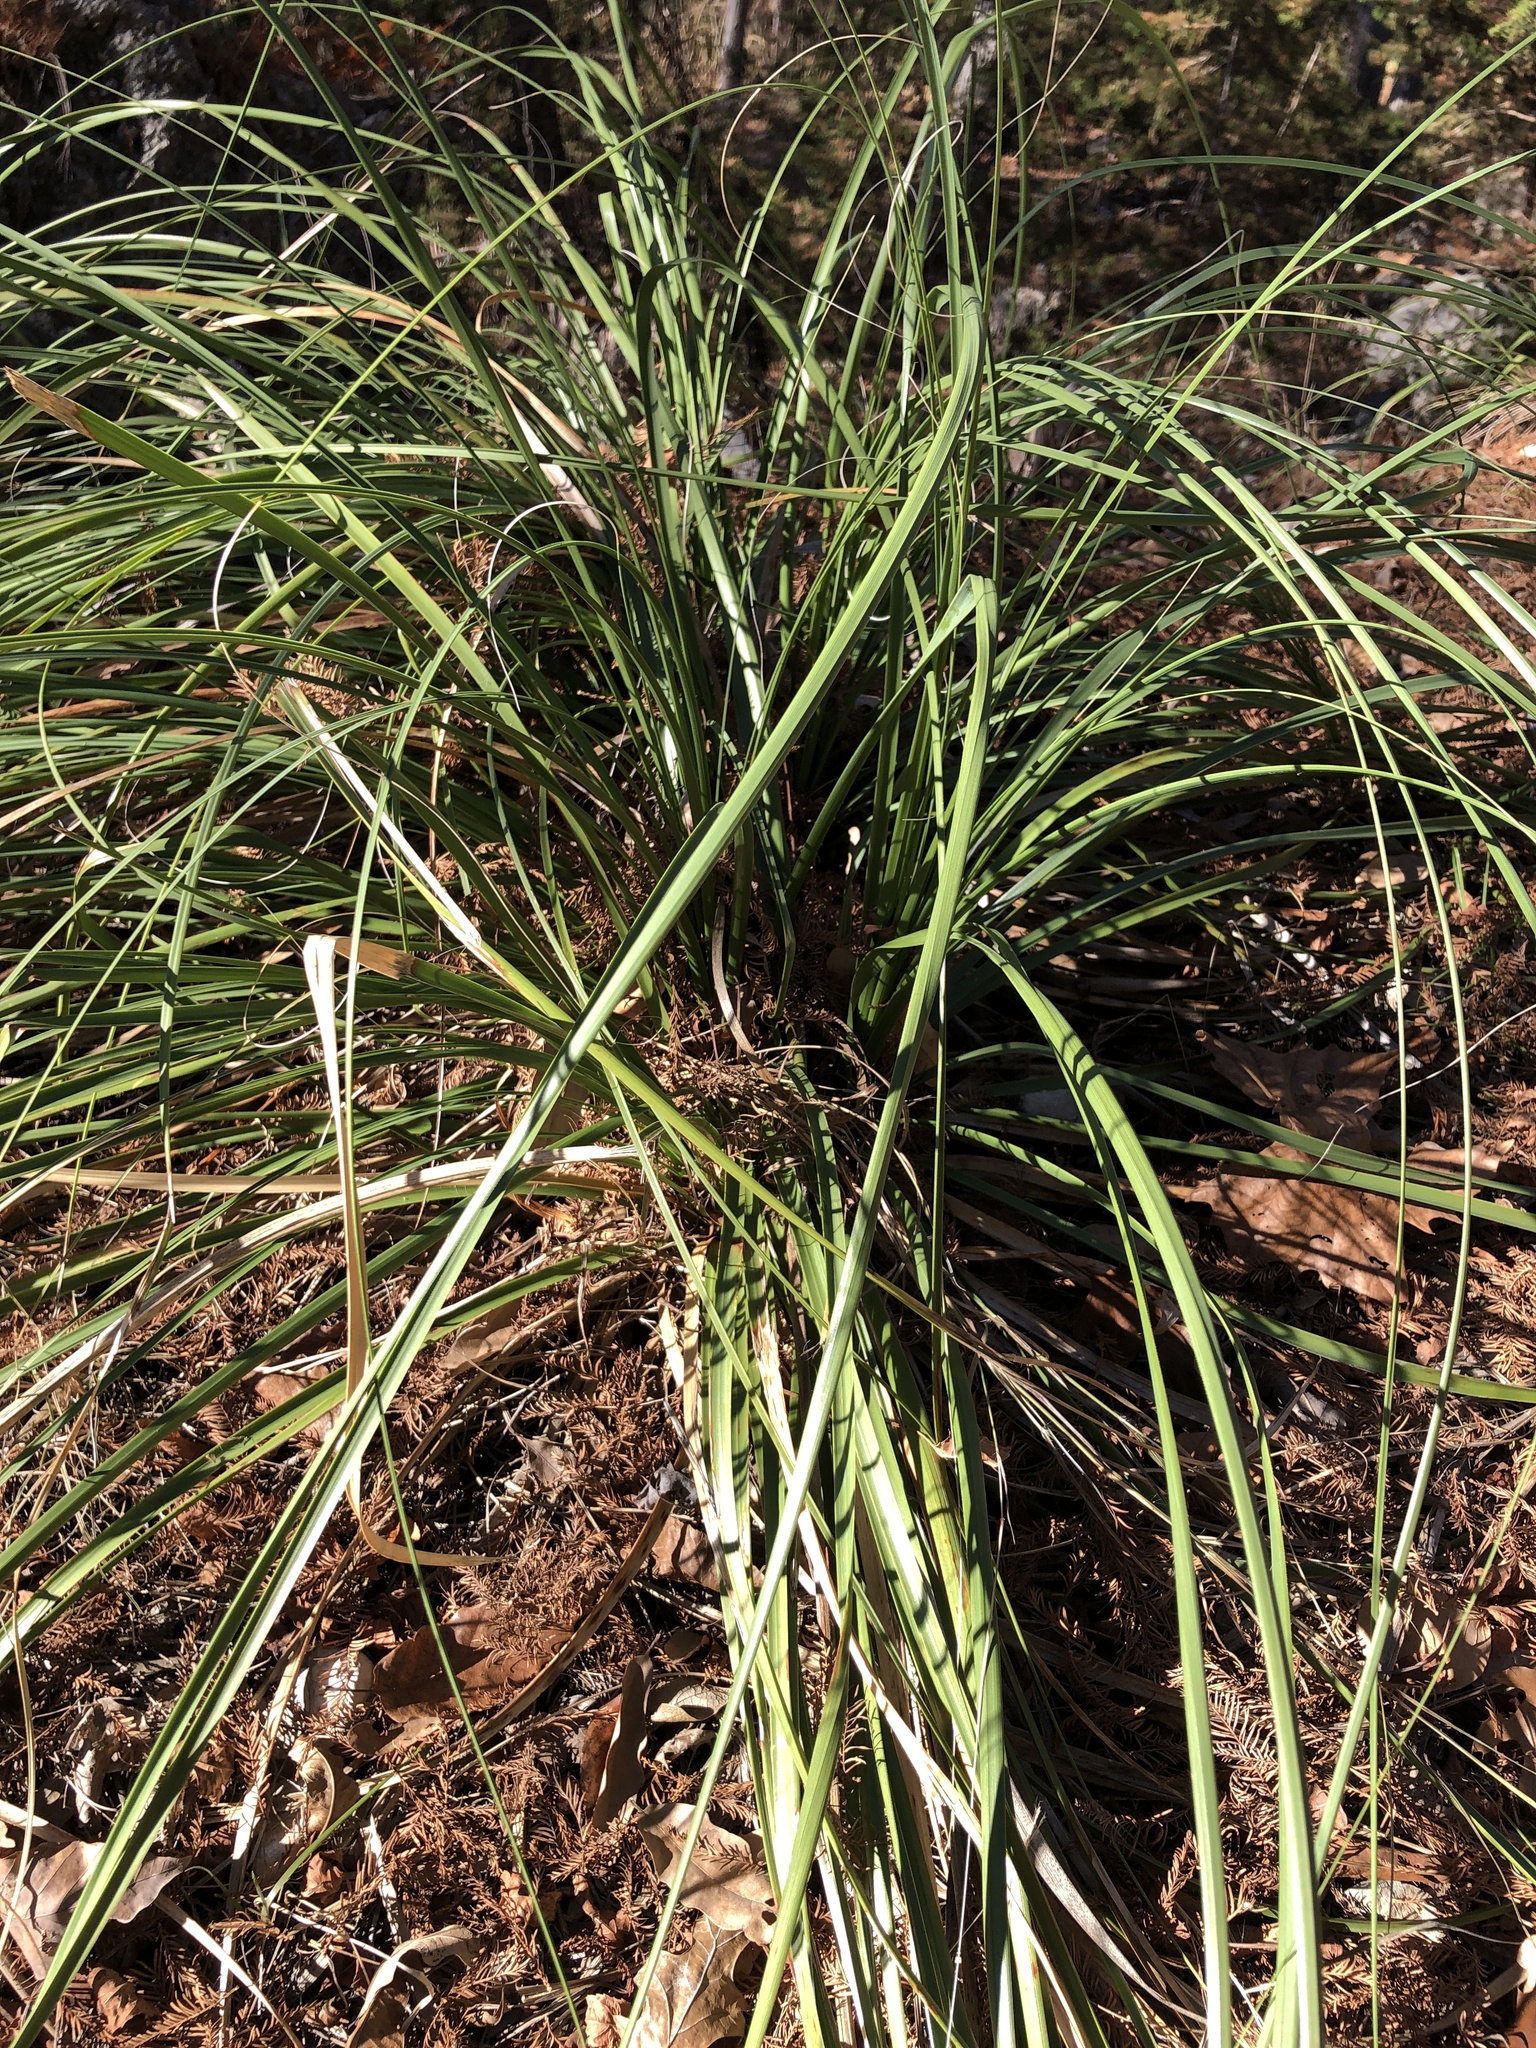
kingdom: Plantae
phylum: Tracheophyta
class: Liliopsida
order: Asparagales
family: Asparagaceae
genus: Nolina
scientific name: Nolina lindheimeriana
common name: Lindheimer's bear-grass
